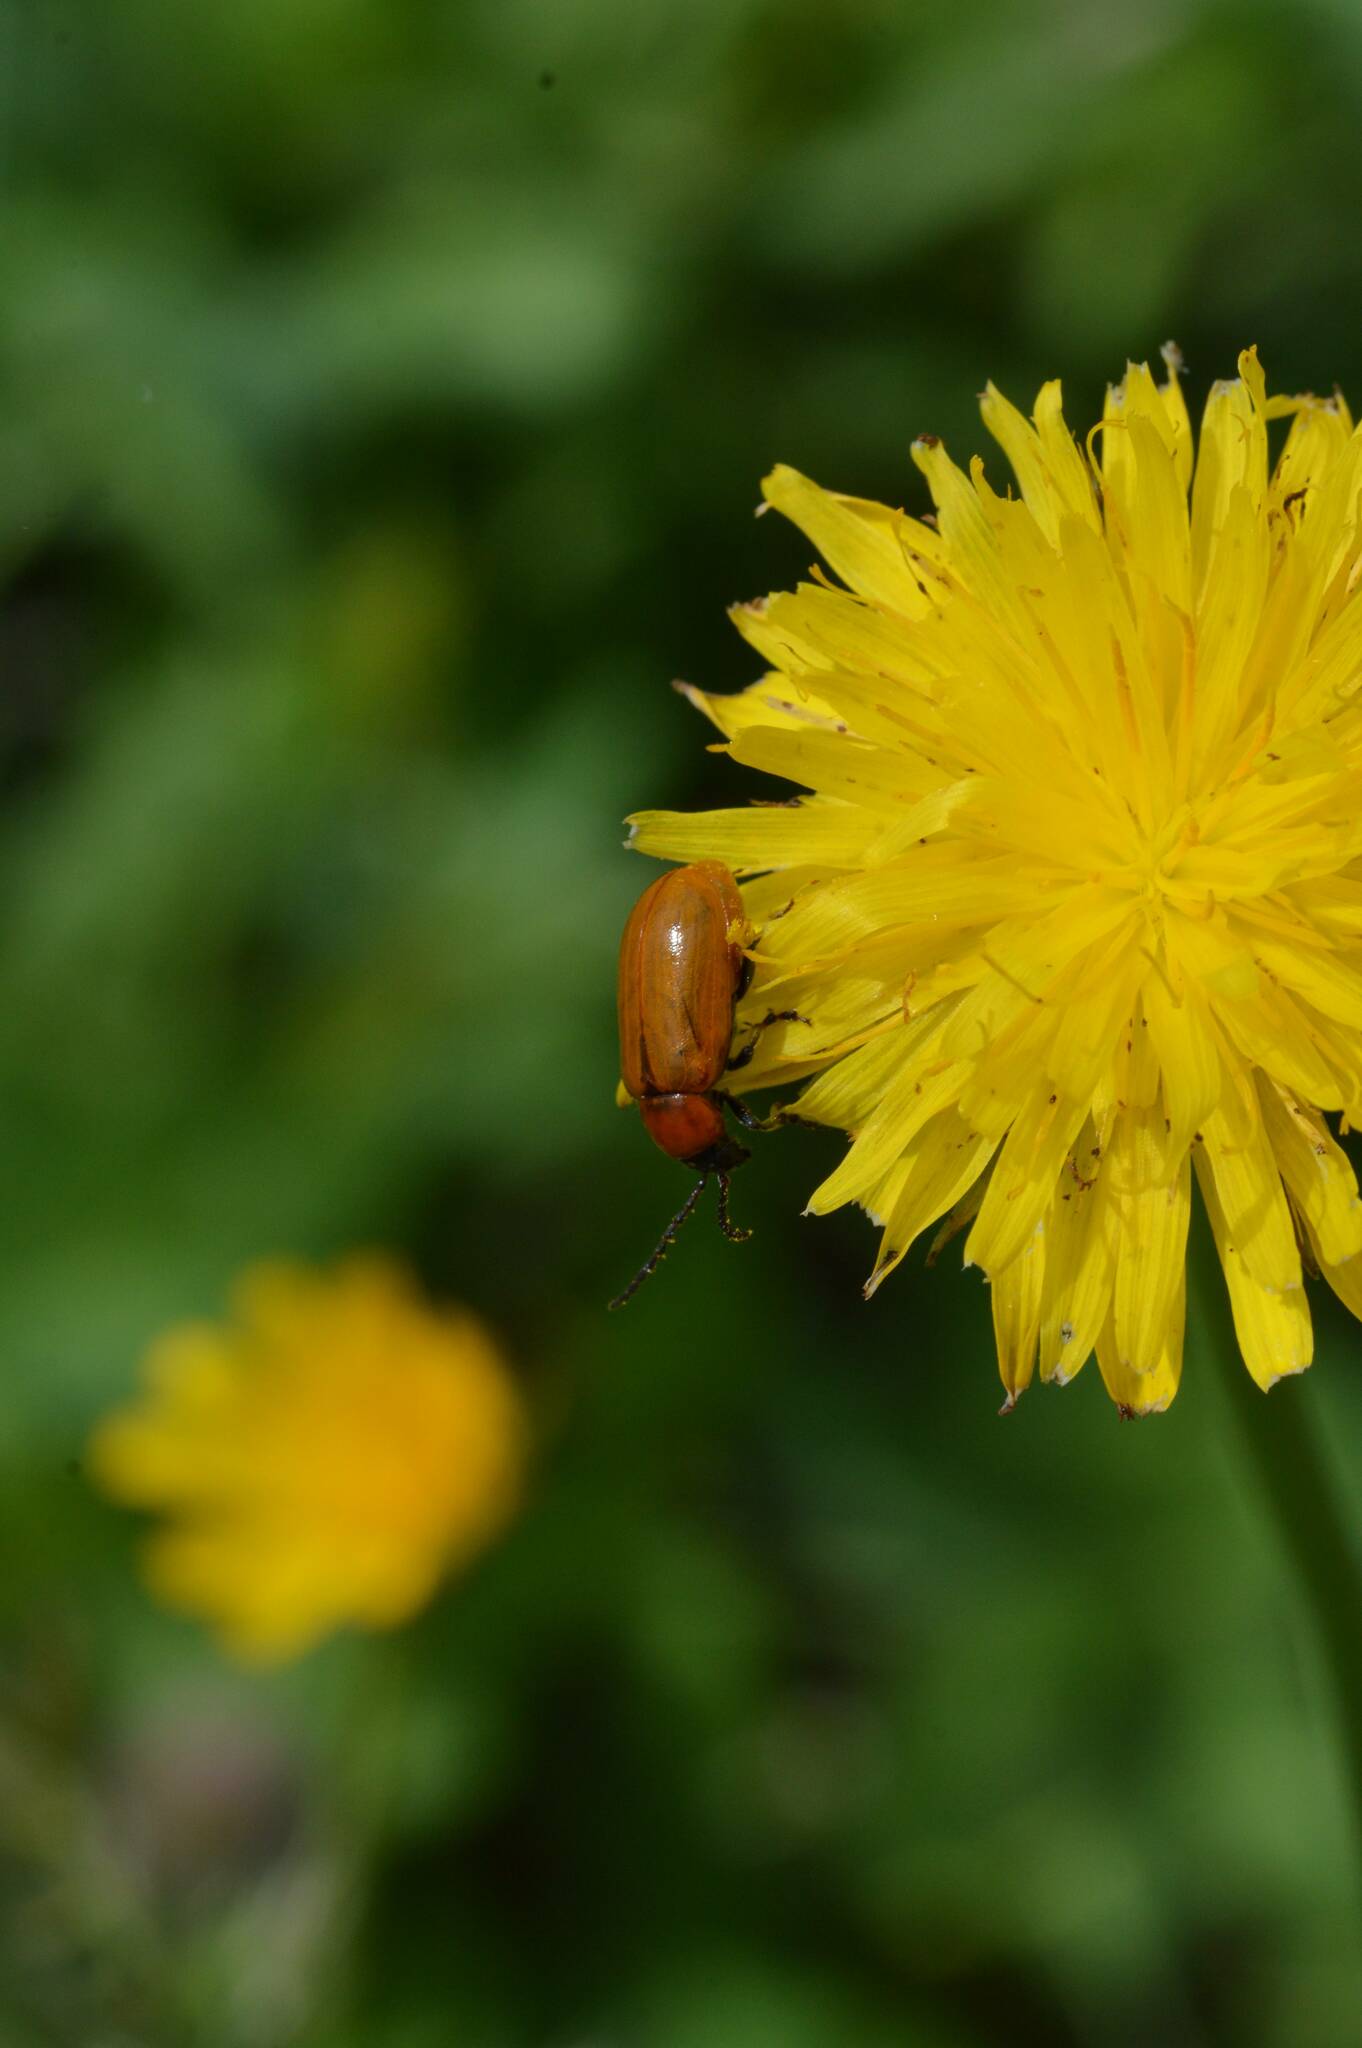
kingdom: Animalia
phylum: Arthropoda
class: Insecta
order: Coleoptera
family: Chrysomelidae
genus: Exosoma
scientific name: Exosoma lusitanicum
